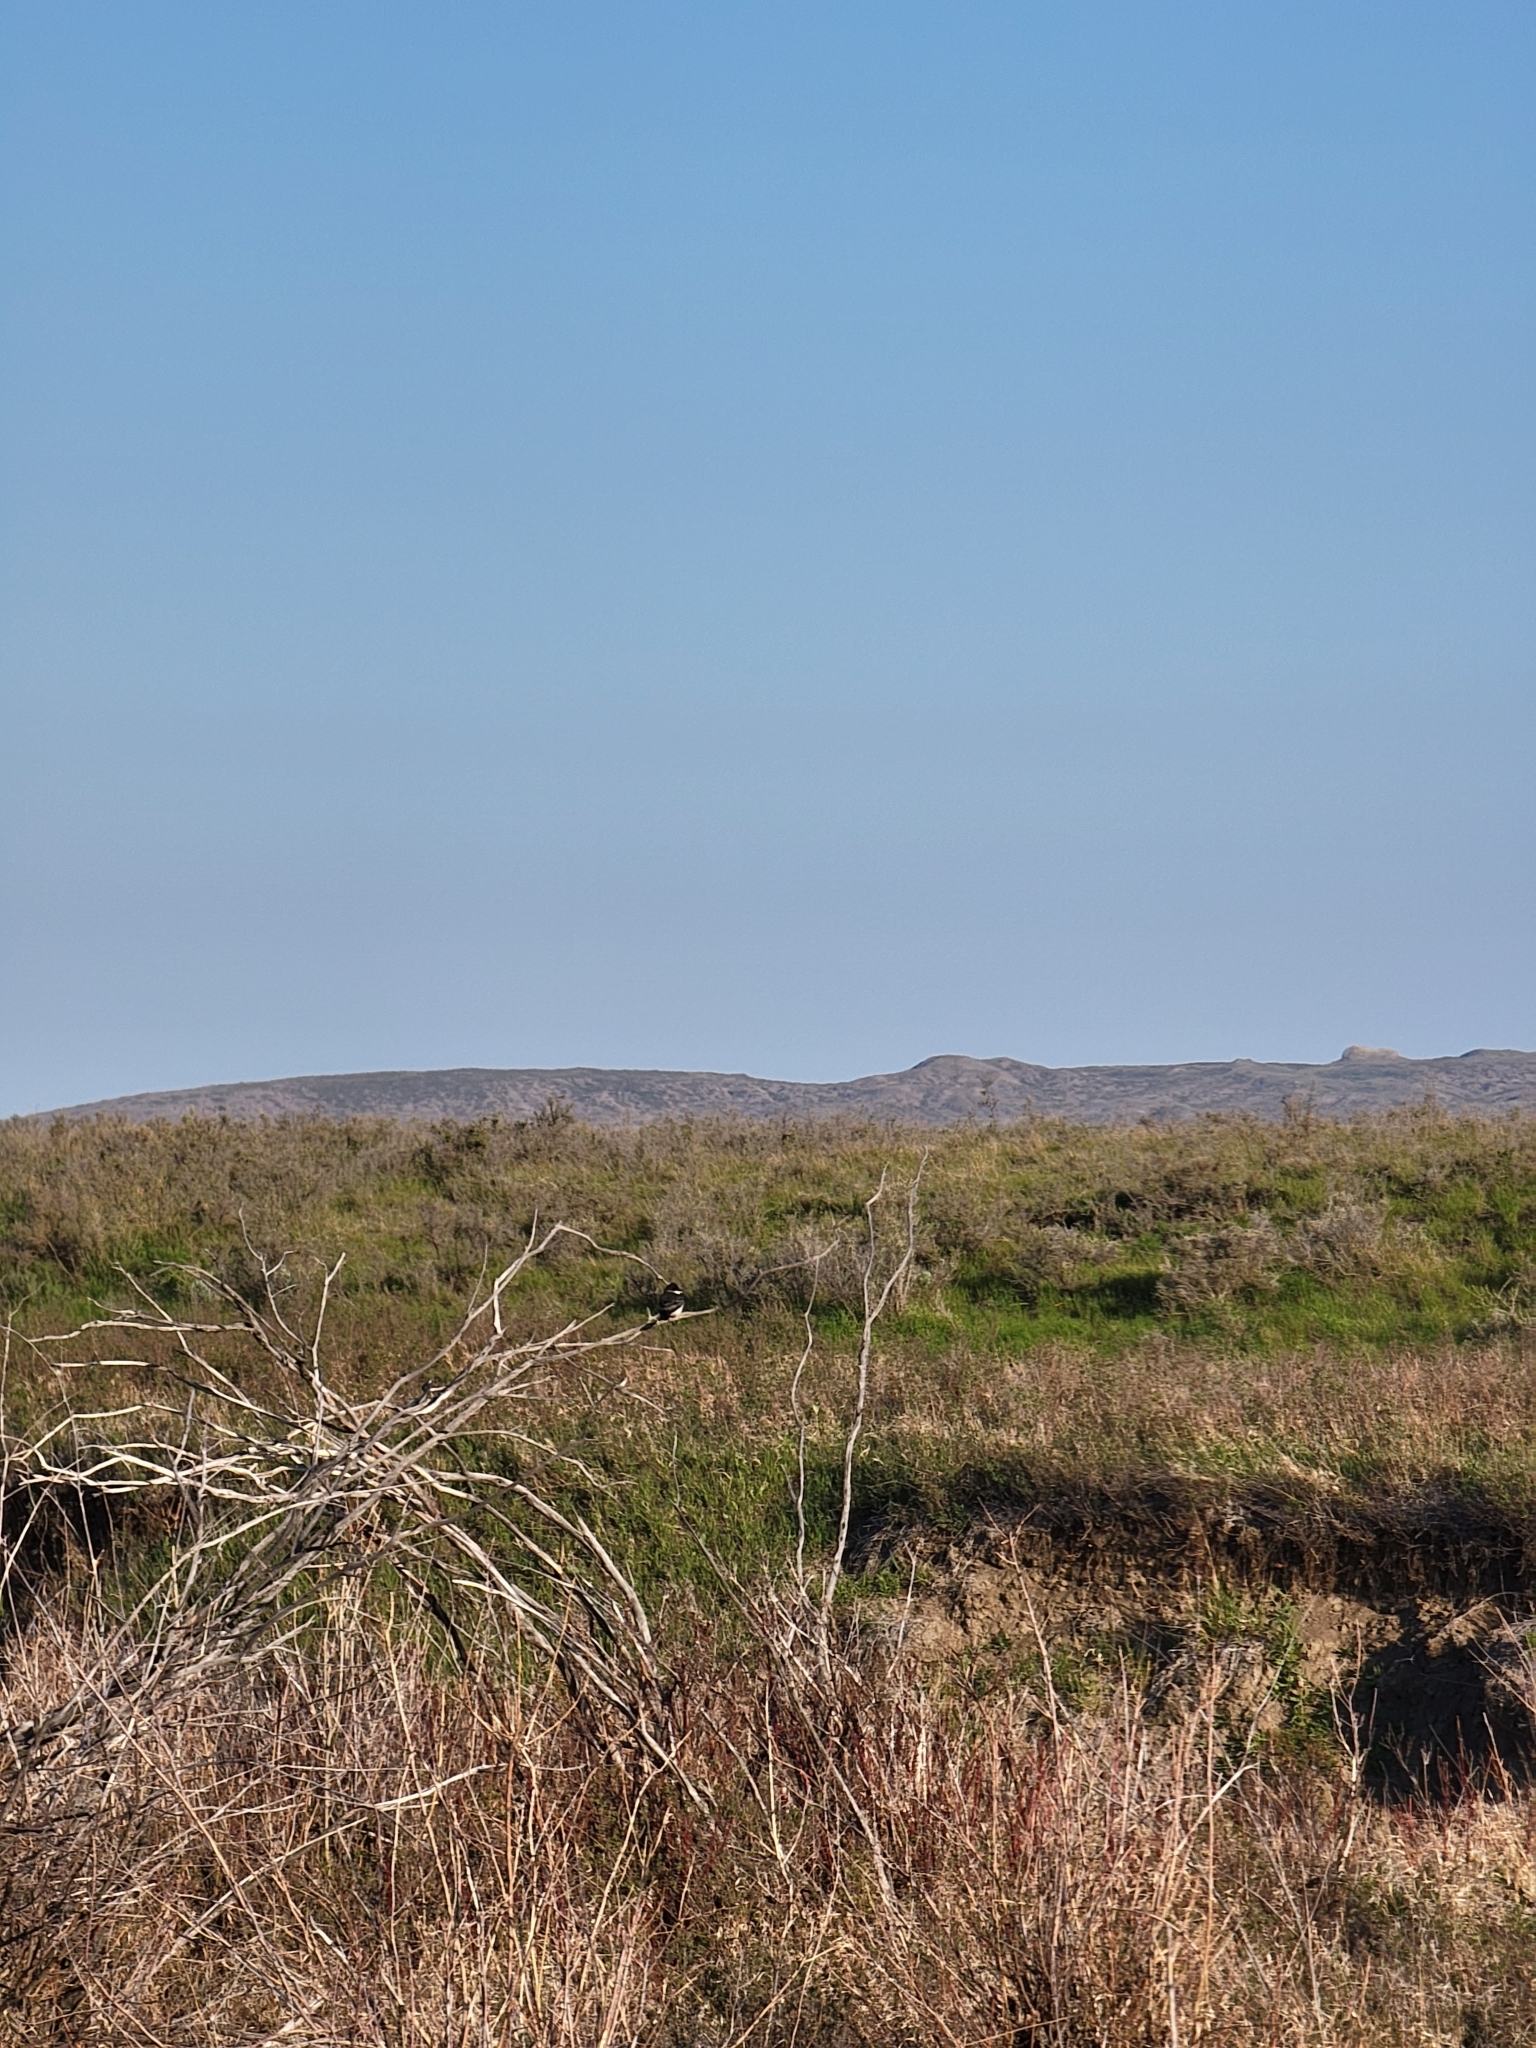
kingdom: Animalia
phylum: Chordata
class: Aves
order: Passeriformes
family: Tyrannidae
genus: Tyrannus
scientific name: Tyrannus tyrannus
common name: Eastern kingbird
